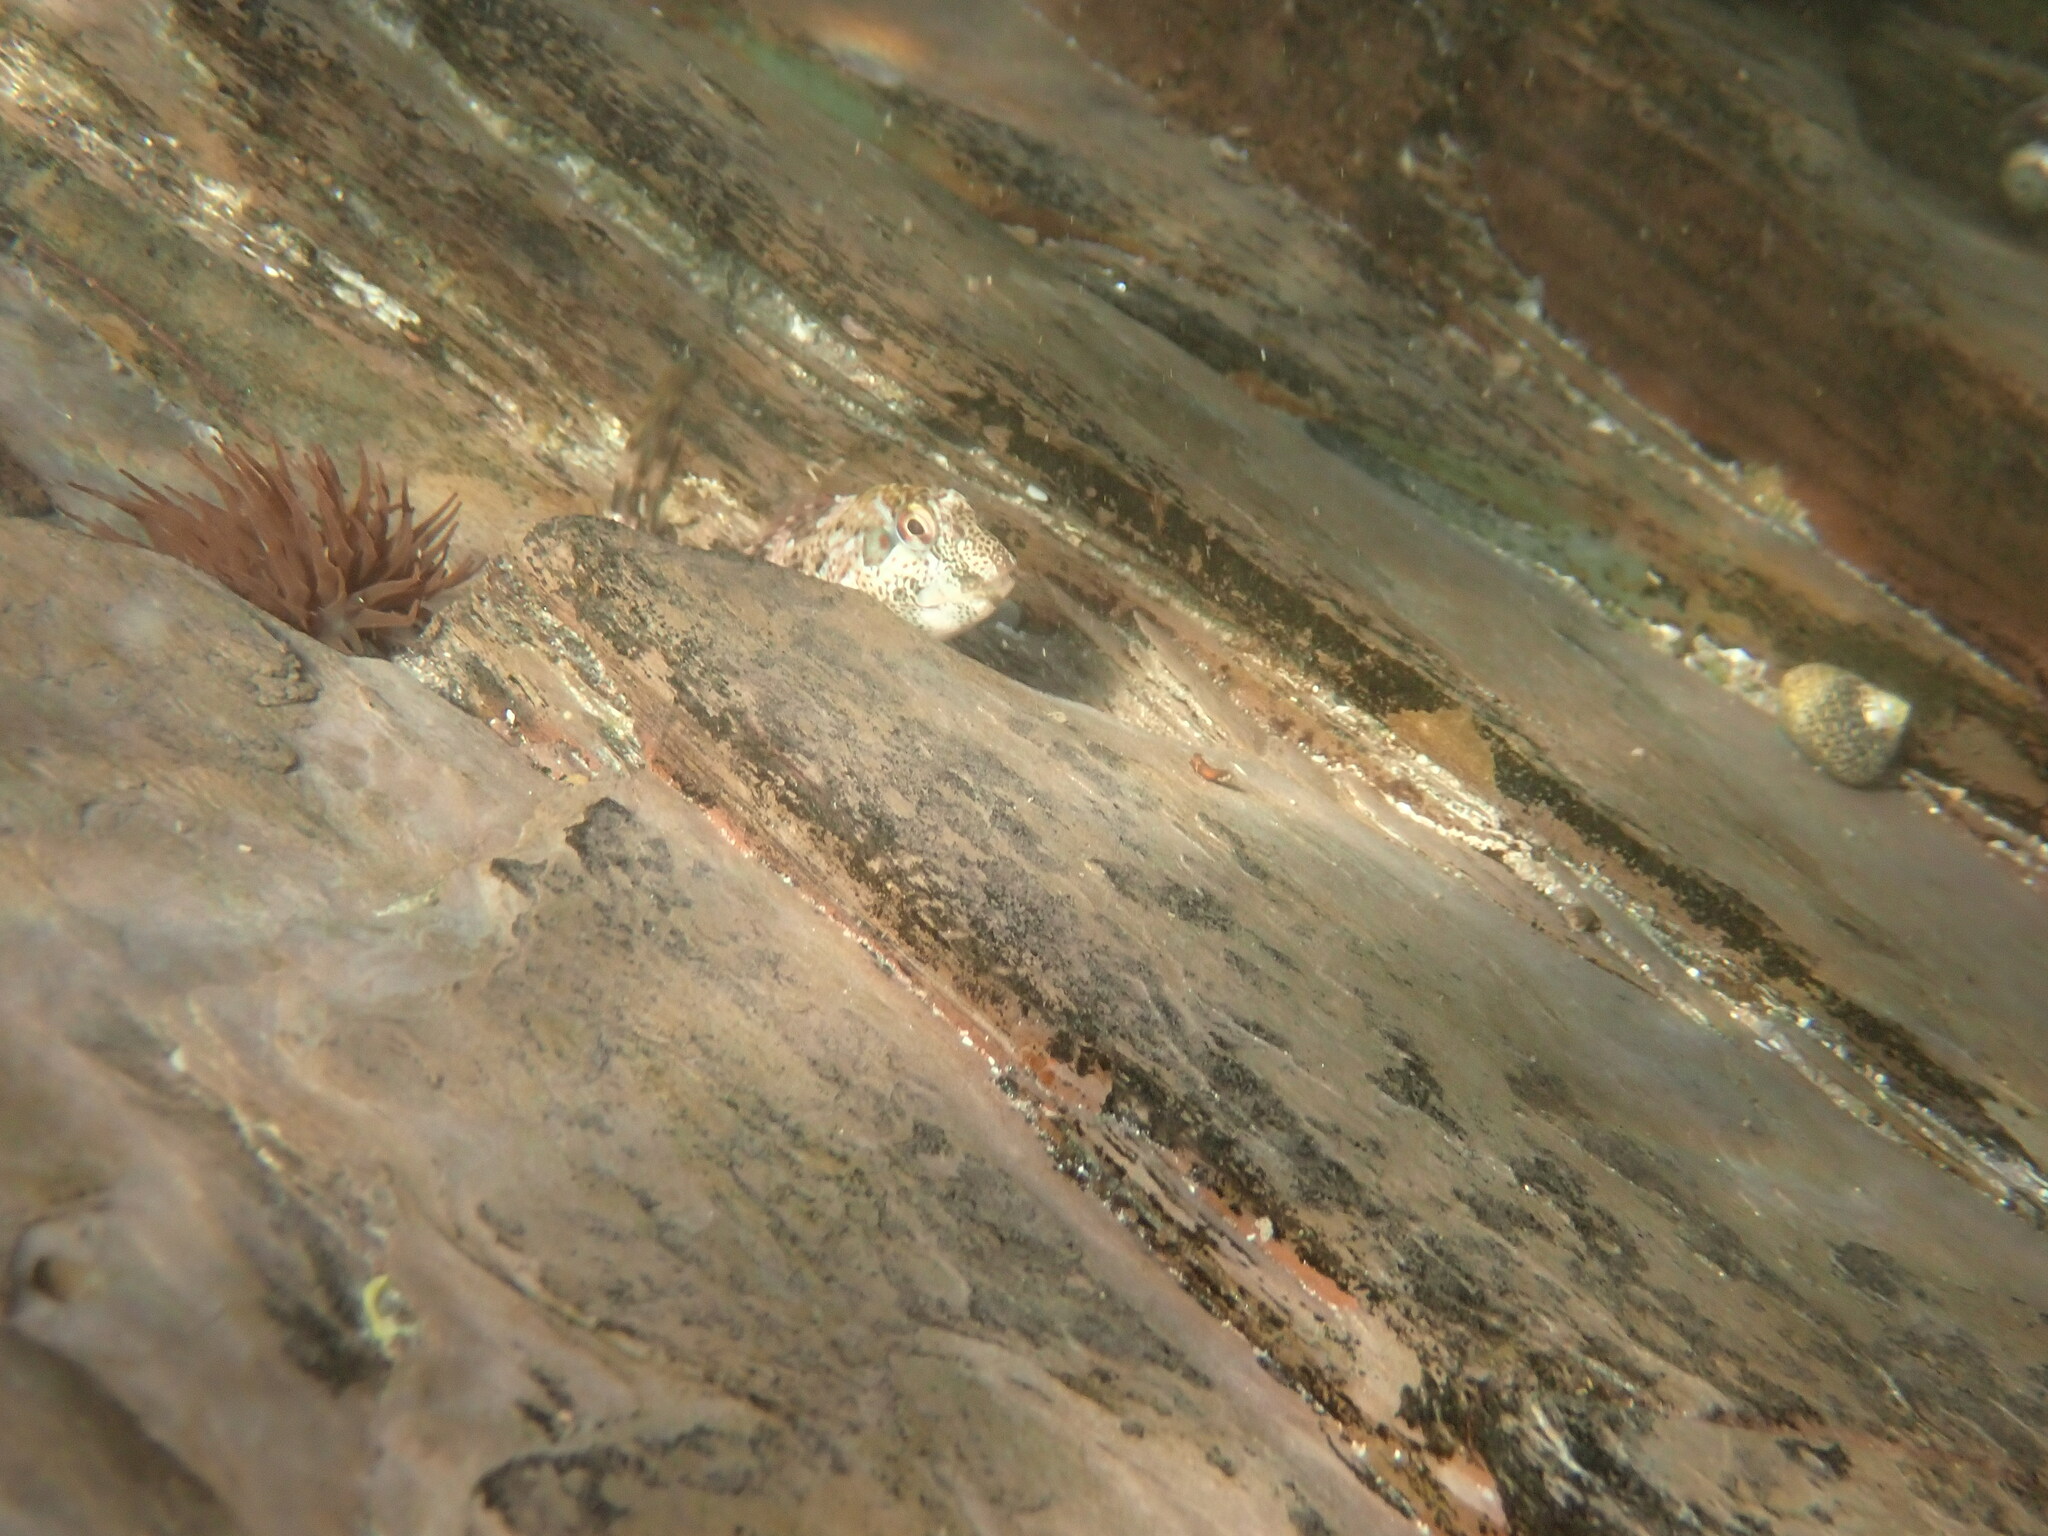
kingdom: Animalia
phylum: Chordata
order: Perciformes
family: Blenniidae
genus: Lipophrys
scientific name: Lipophrys pholis
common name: Shanny
